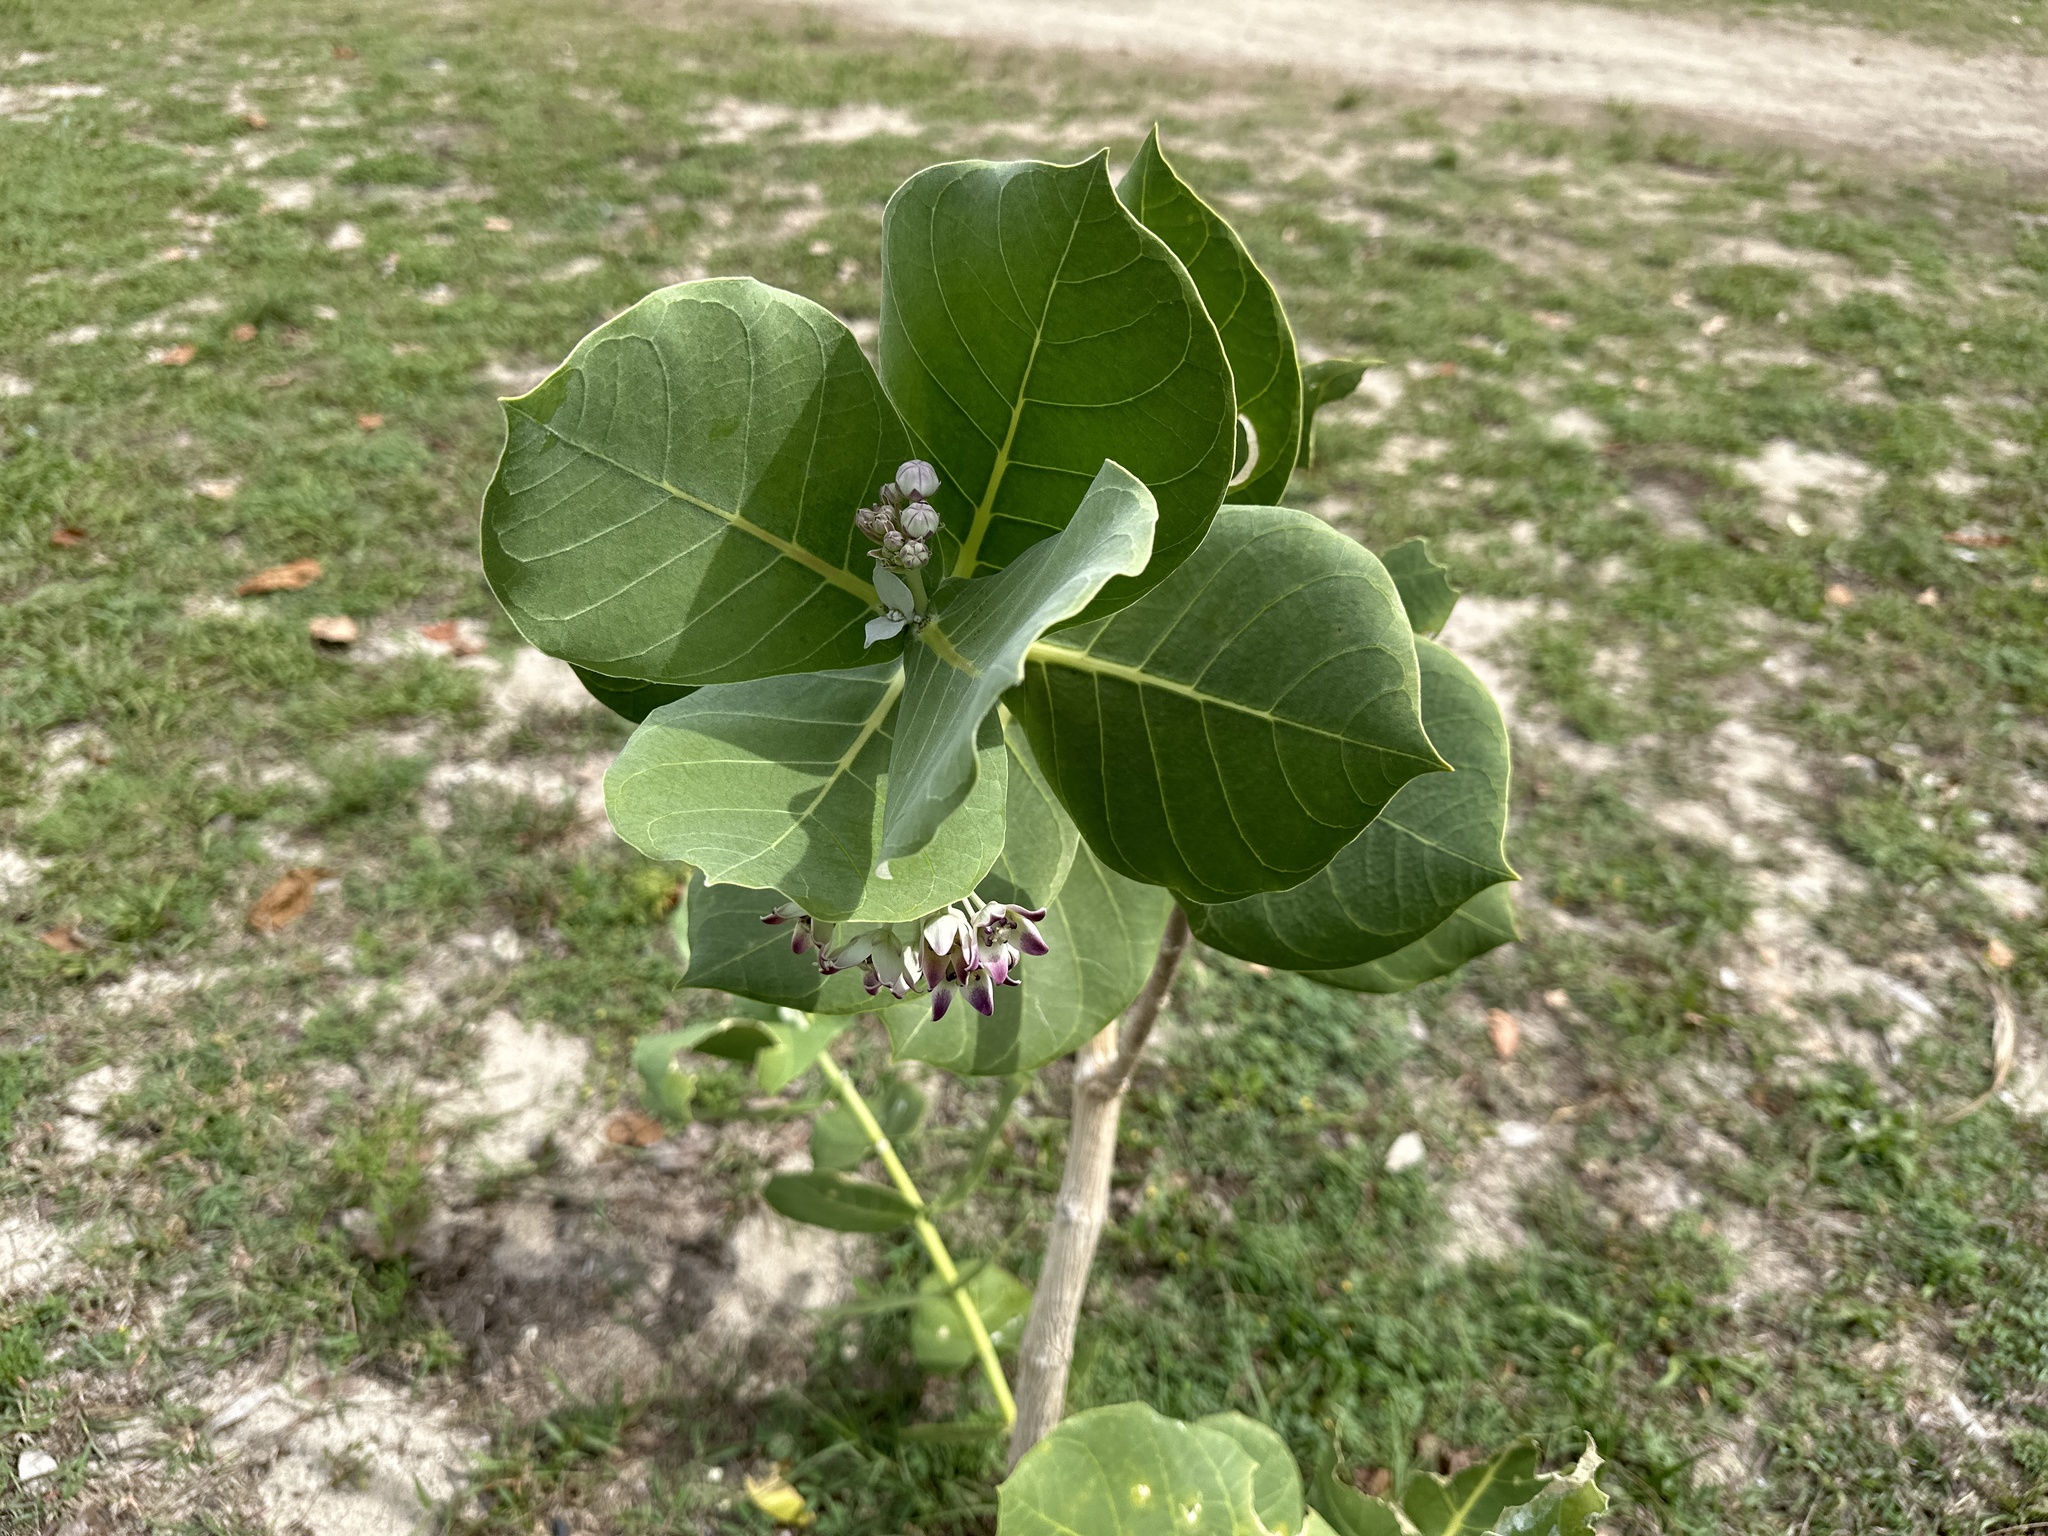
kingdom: Plantae
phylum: Tracheophyta
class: Magnoliopsida
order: Gentianales
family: Apocynaceae
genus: Calotropis
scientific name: Calotropis procera
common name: Roostertree
